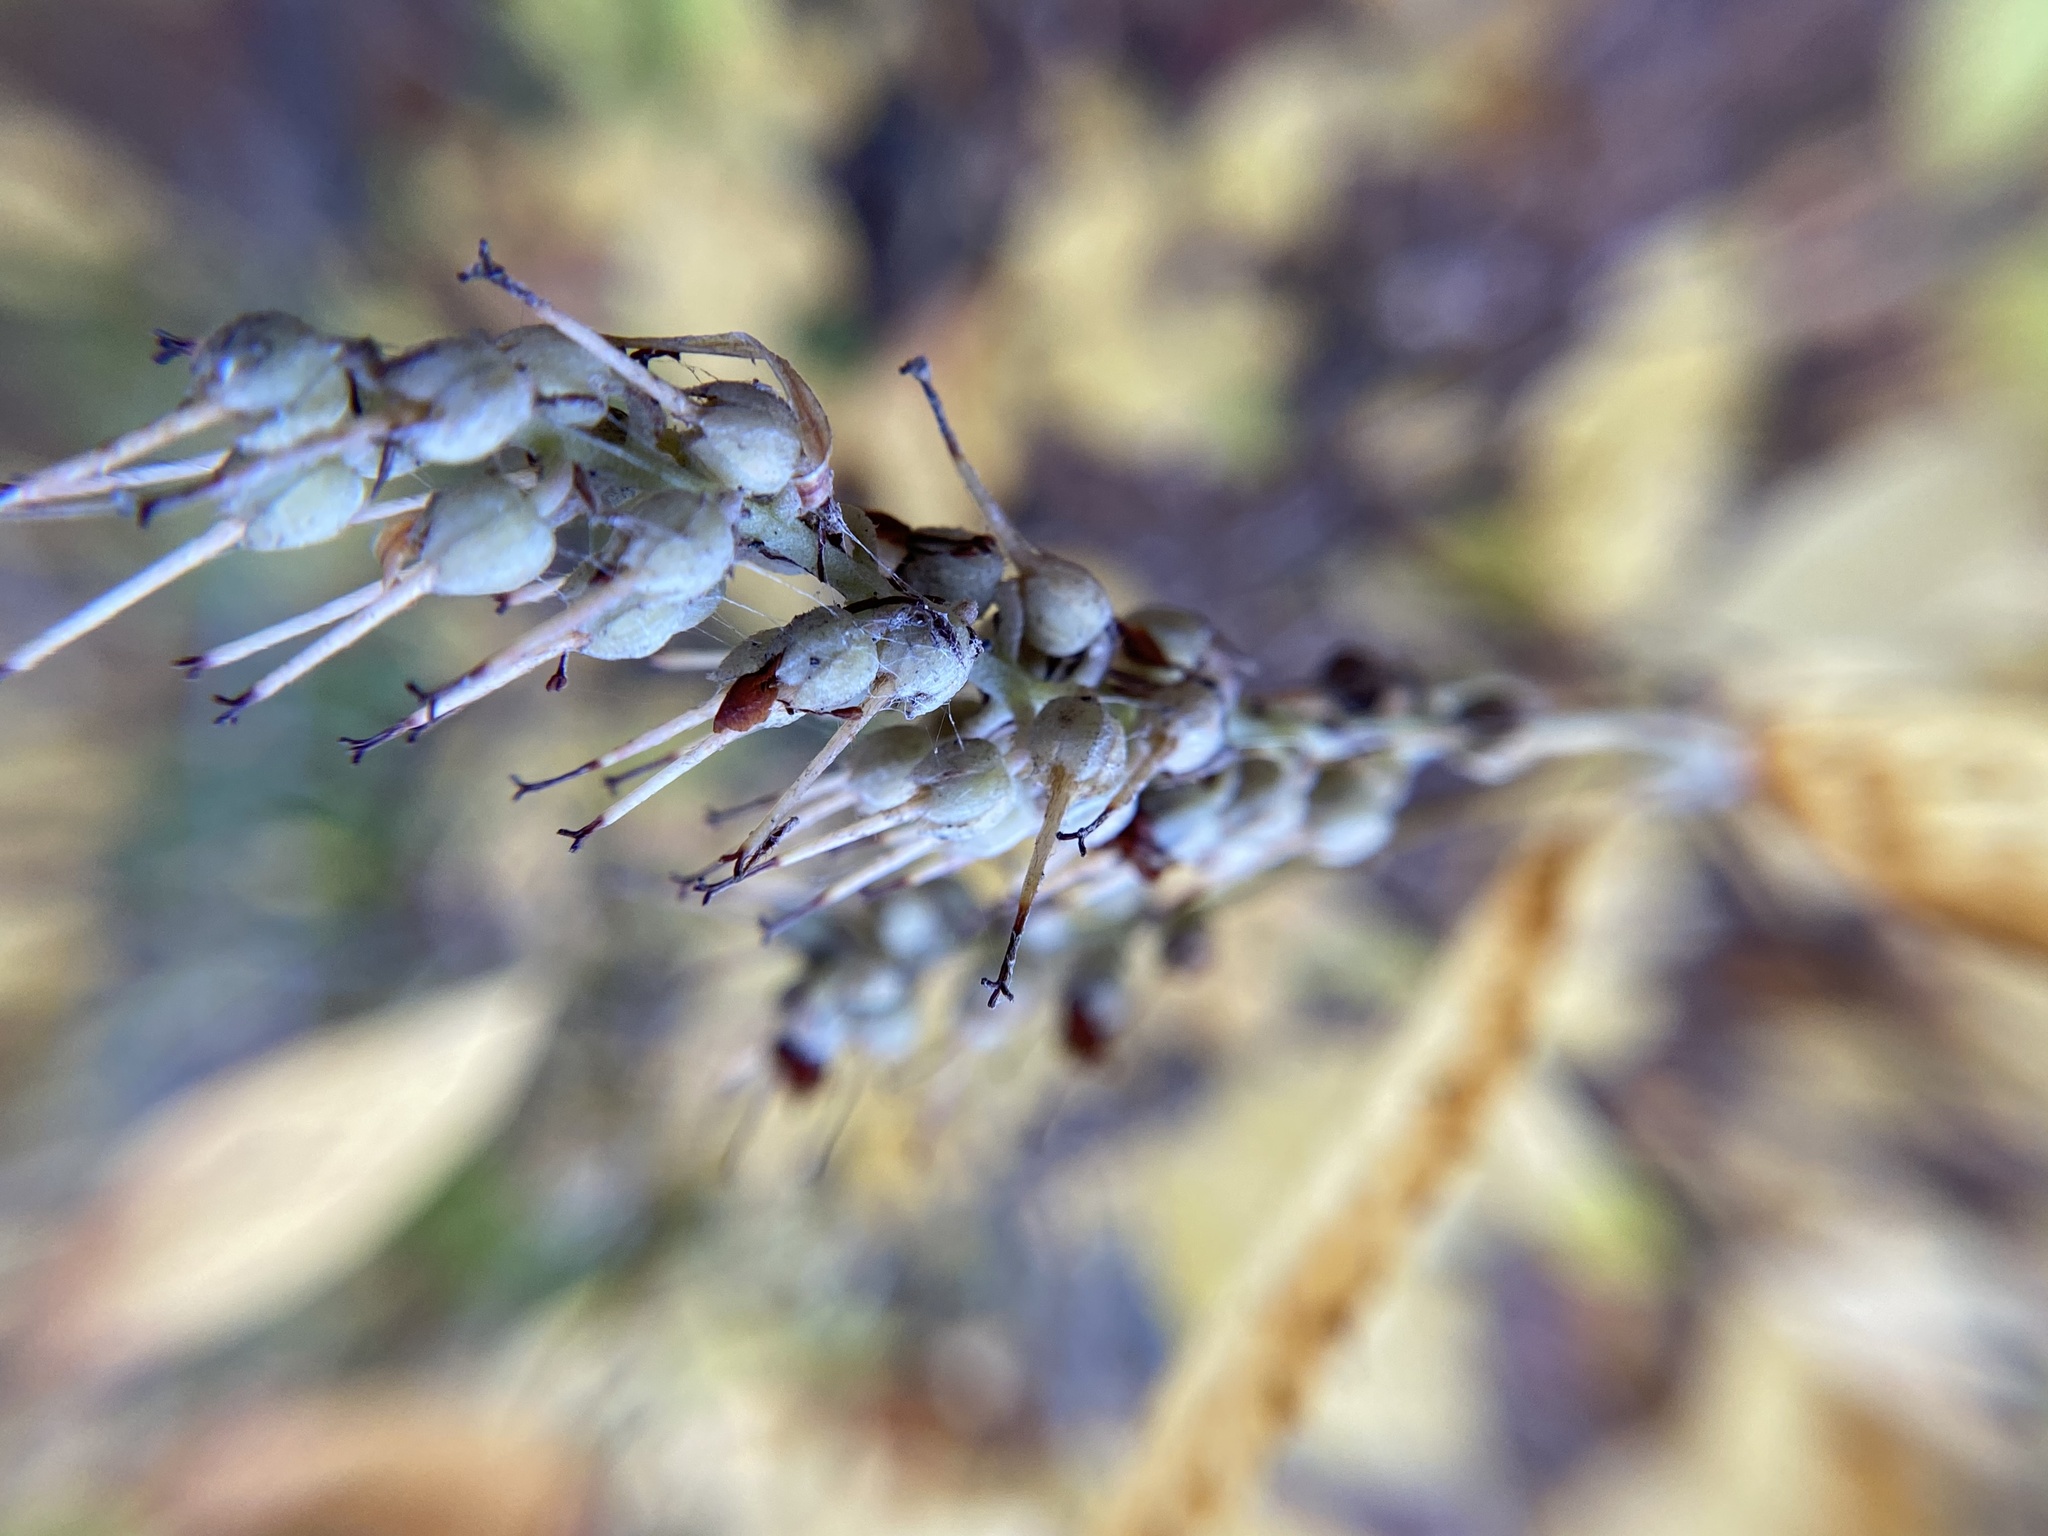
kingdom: Plantae
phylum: Tracheophyta
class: Magnoliopsida
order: Ericales
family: Clethraceae
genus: Clethra
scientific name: Clethra alnifolia
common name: Sweet pepperbush
